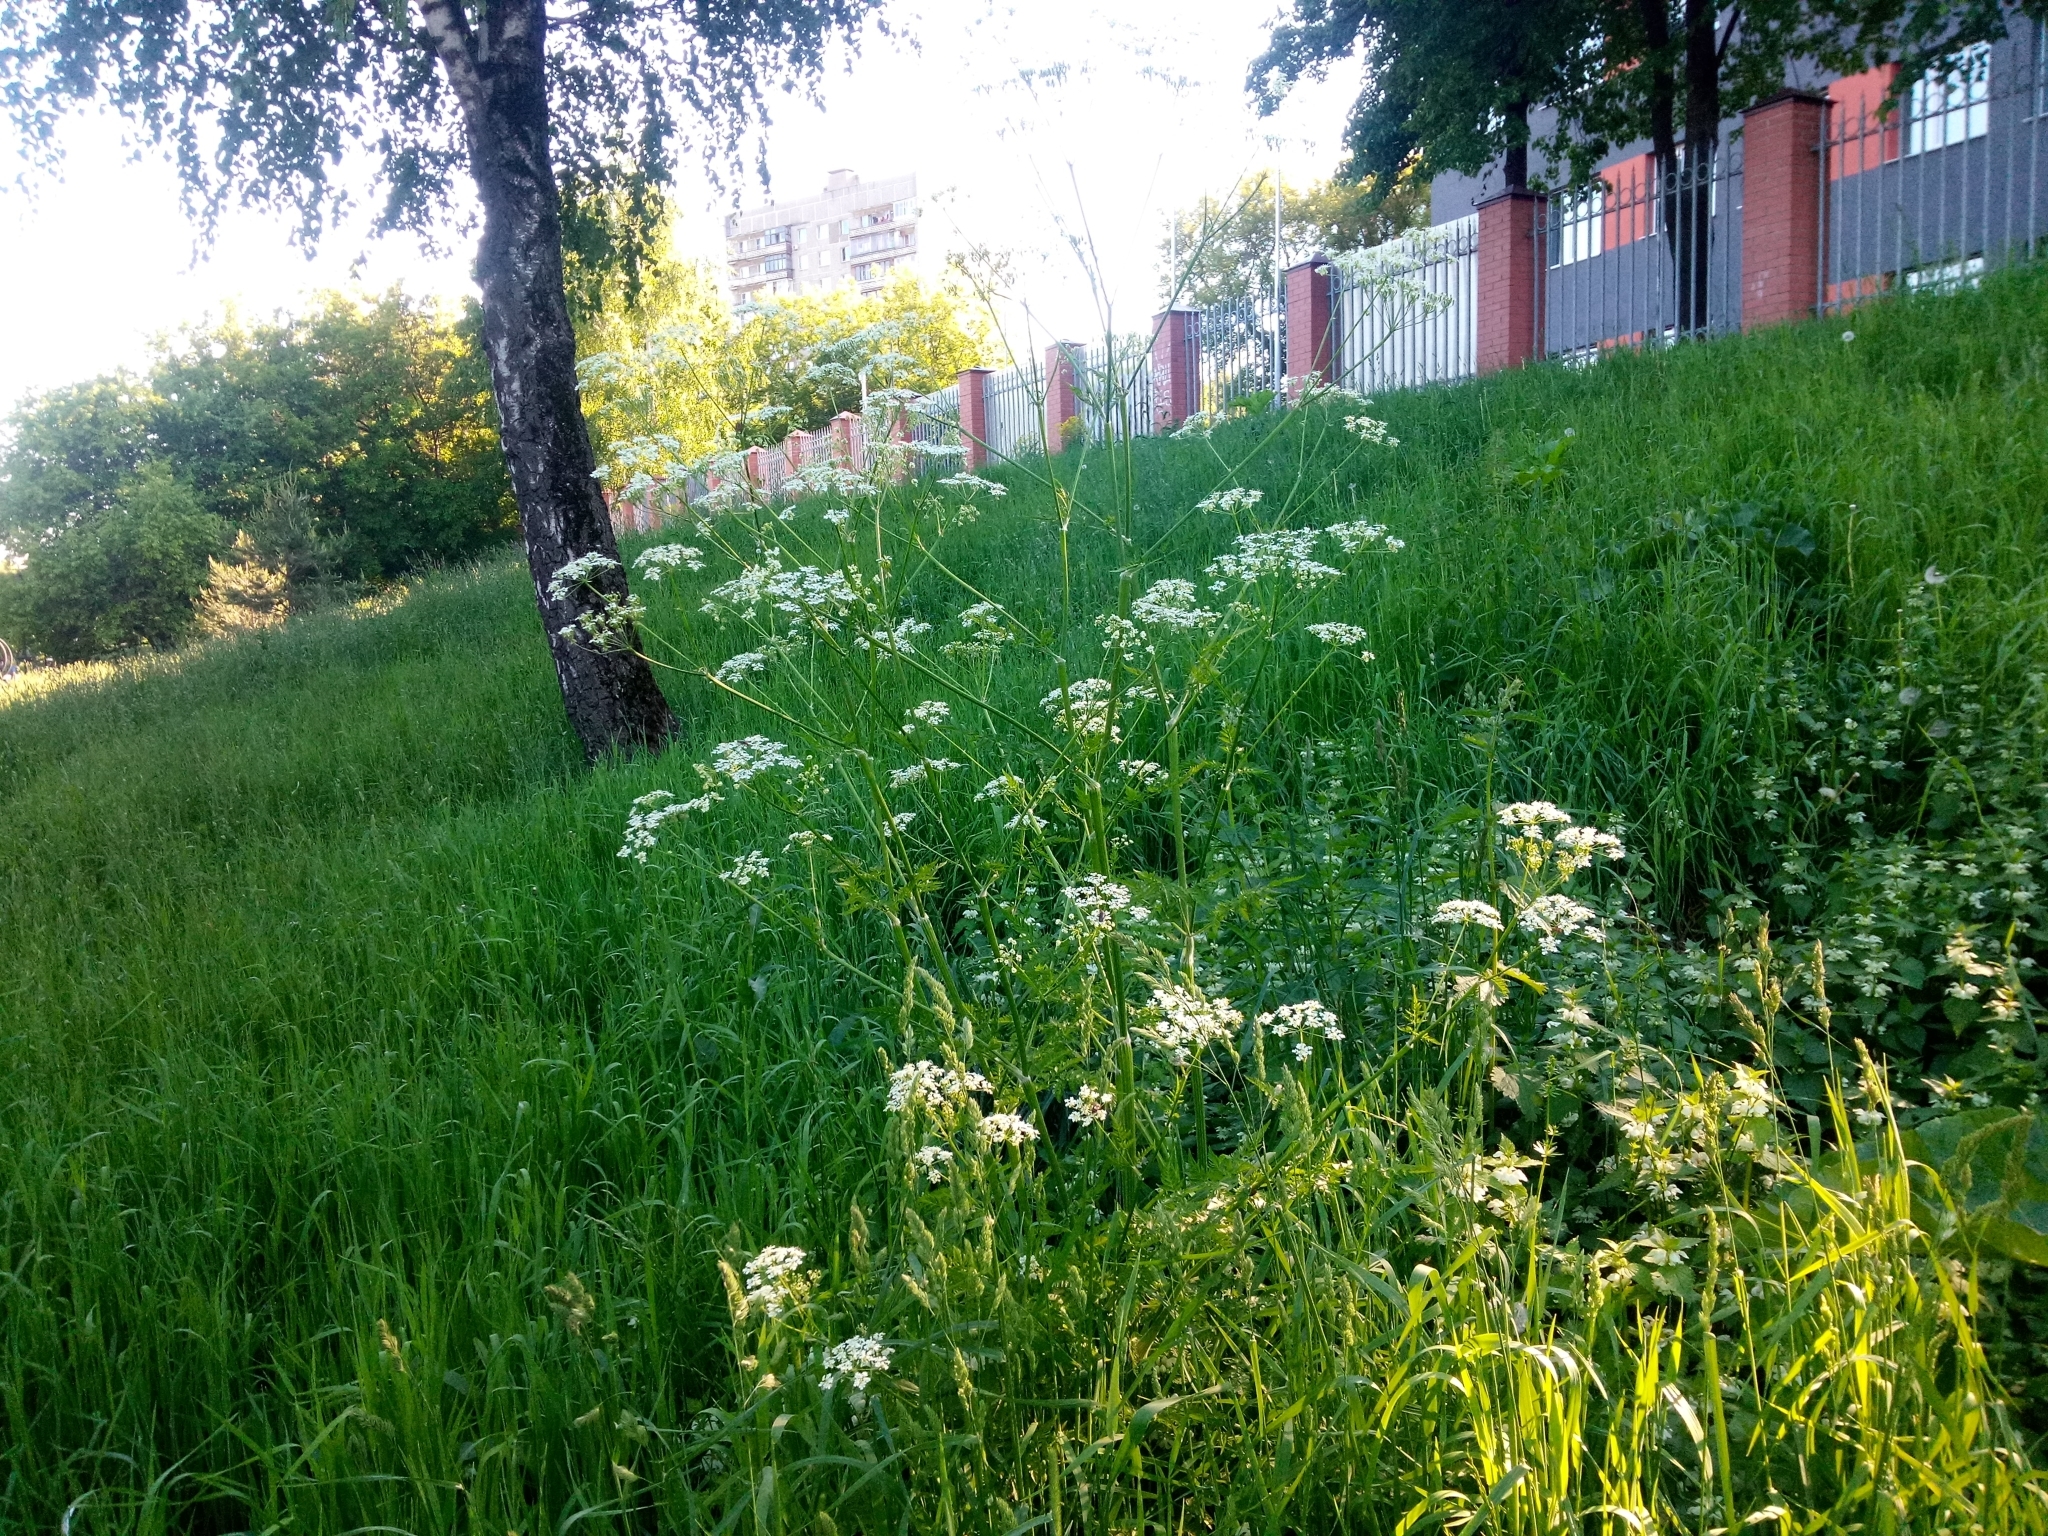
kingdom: Plantae
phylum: Tracheophyta
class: Magnoliopsida
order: Apiales
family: Apiaceae
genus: Anthriscus
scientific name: Anthriscus sylvestris
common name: Cow parsley
